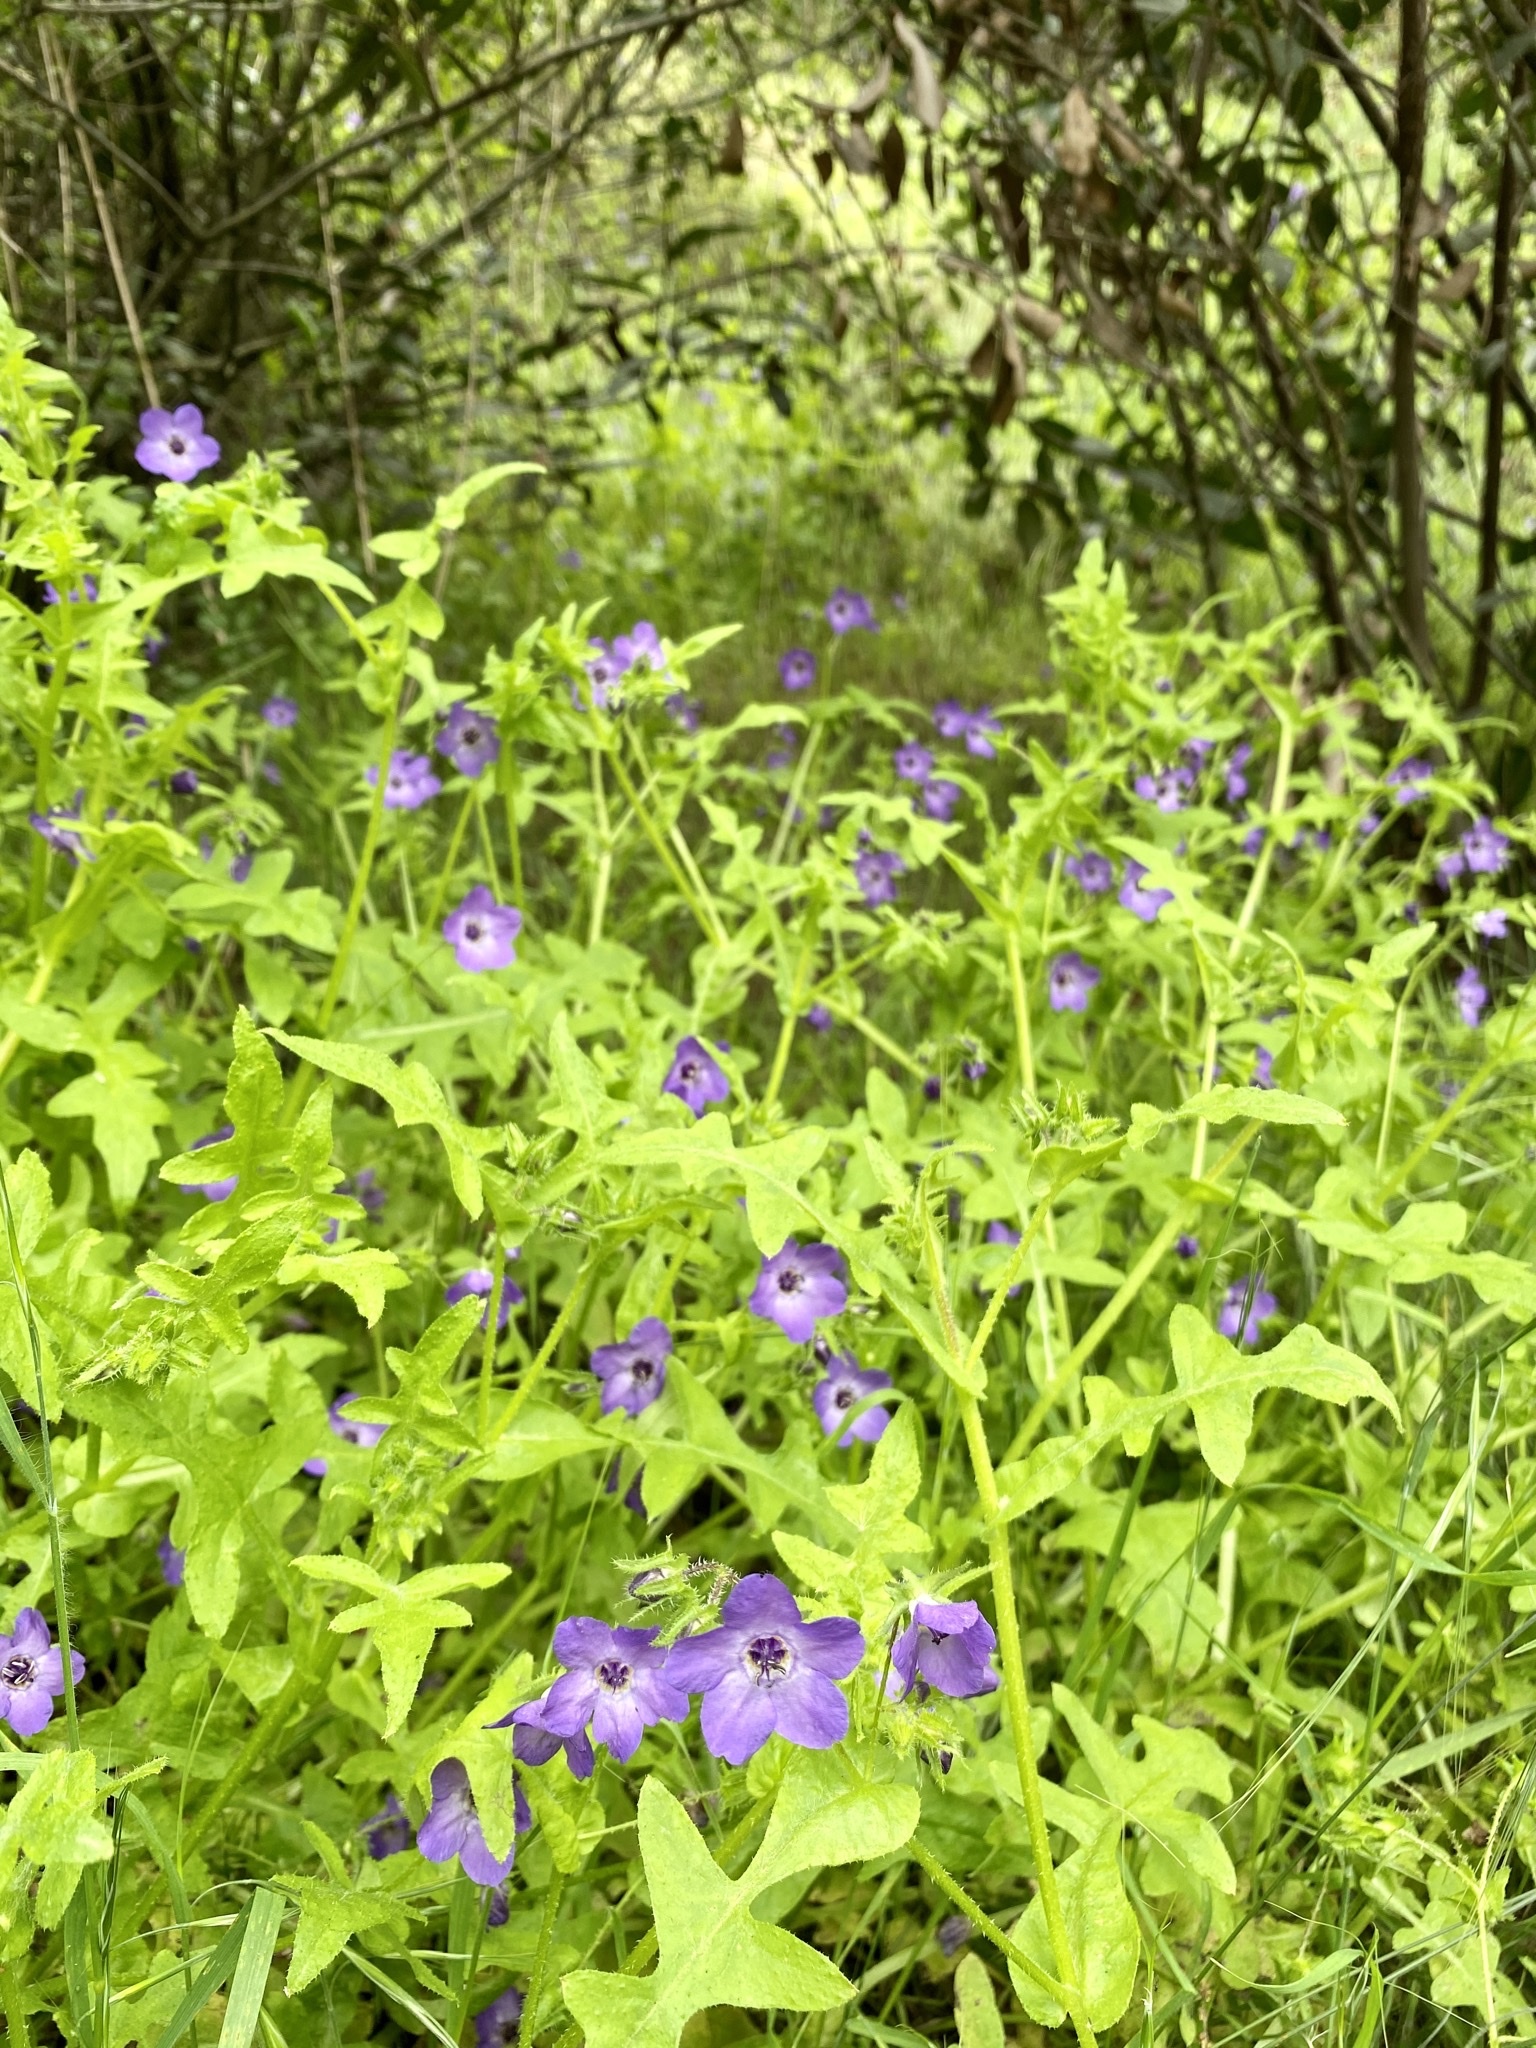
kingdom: Plantae
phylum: Tracheophyta
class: Magnoliopsida
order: Boraginales
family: Hydrophyllaceae
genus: Pholistoma
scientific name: Pholistoma auritum
